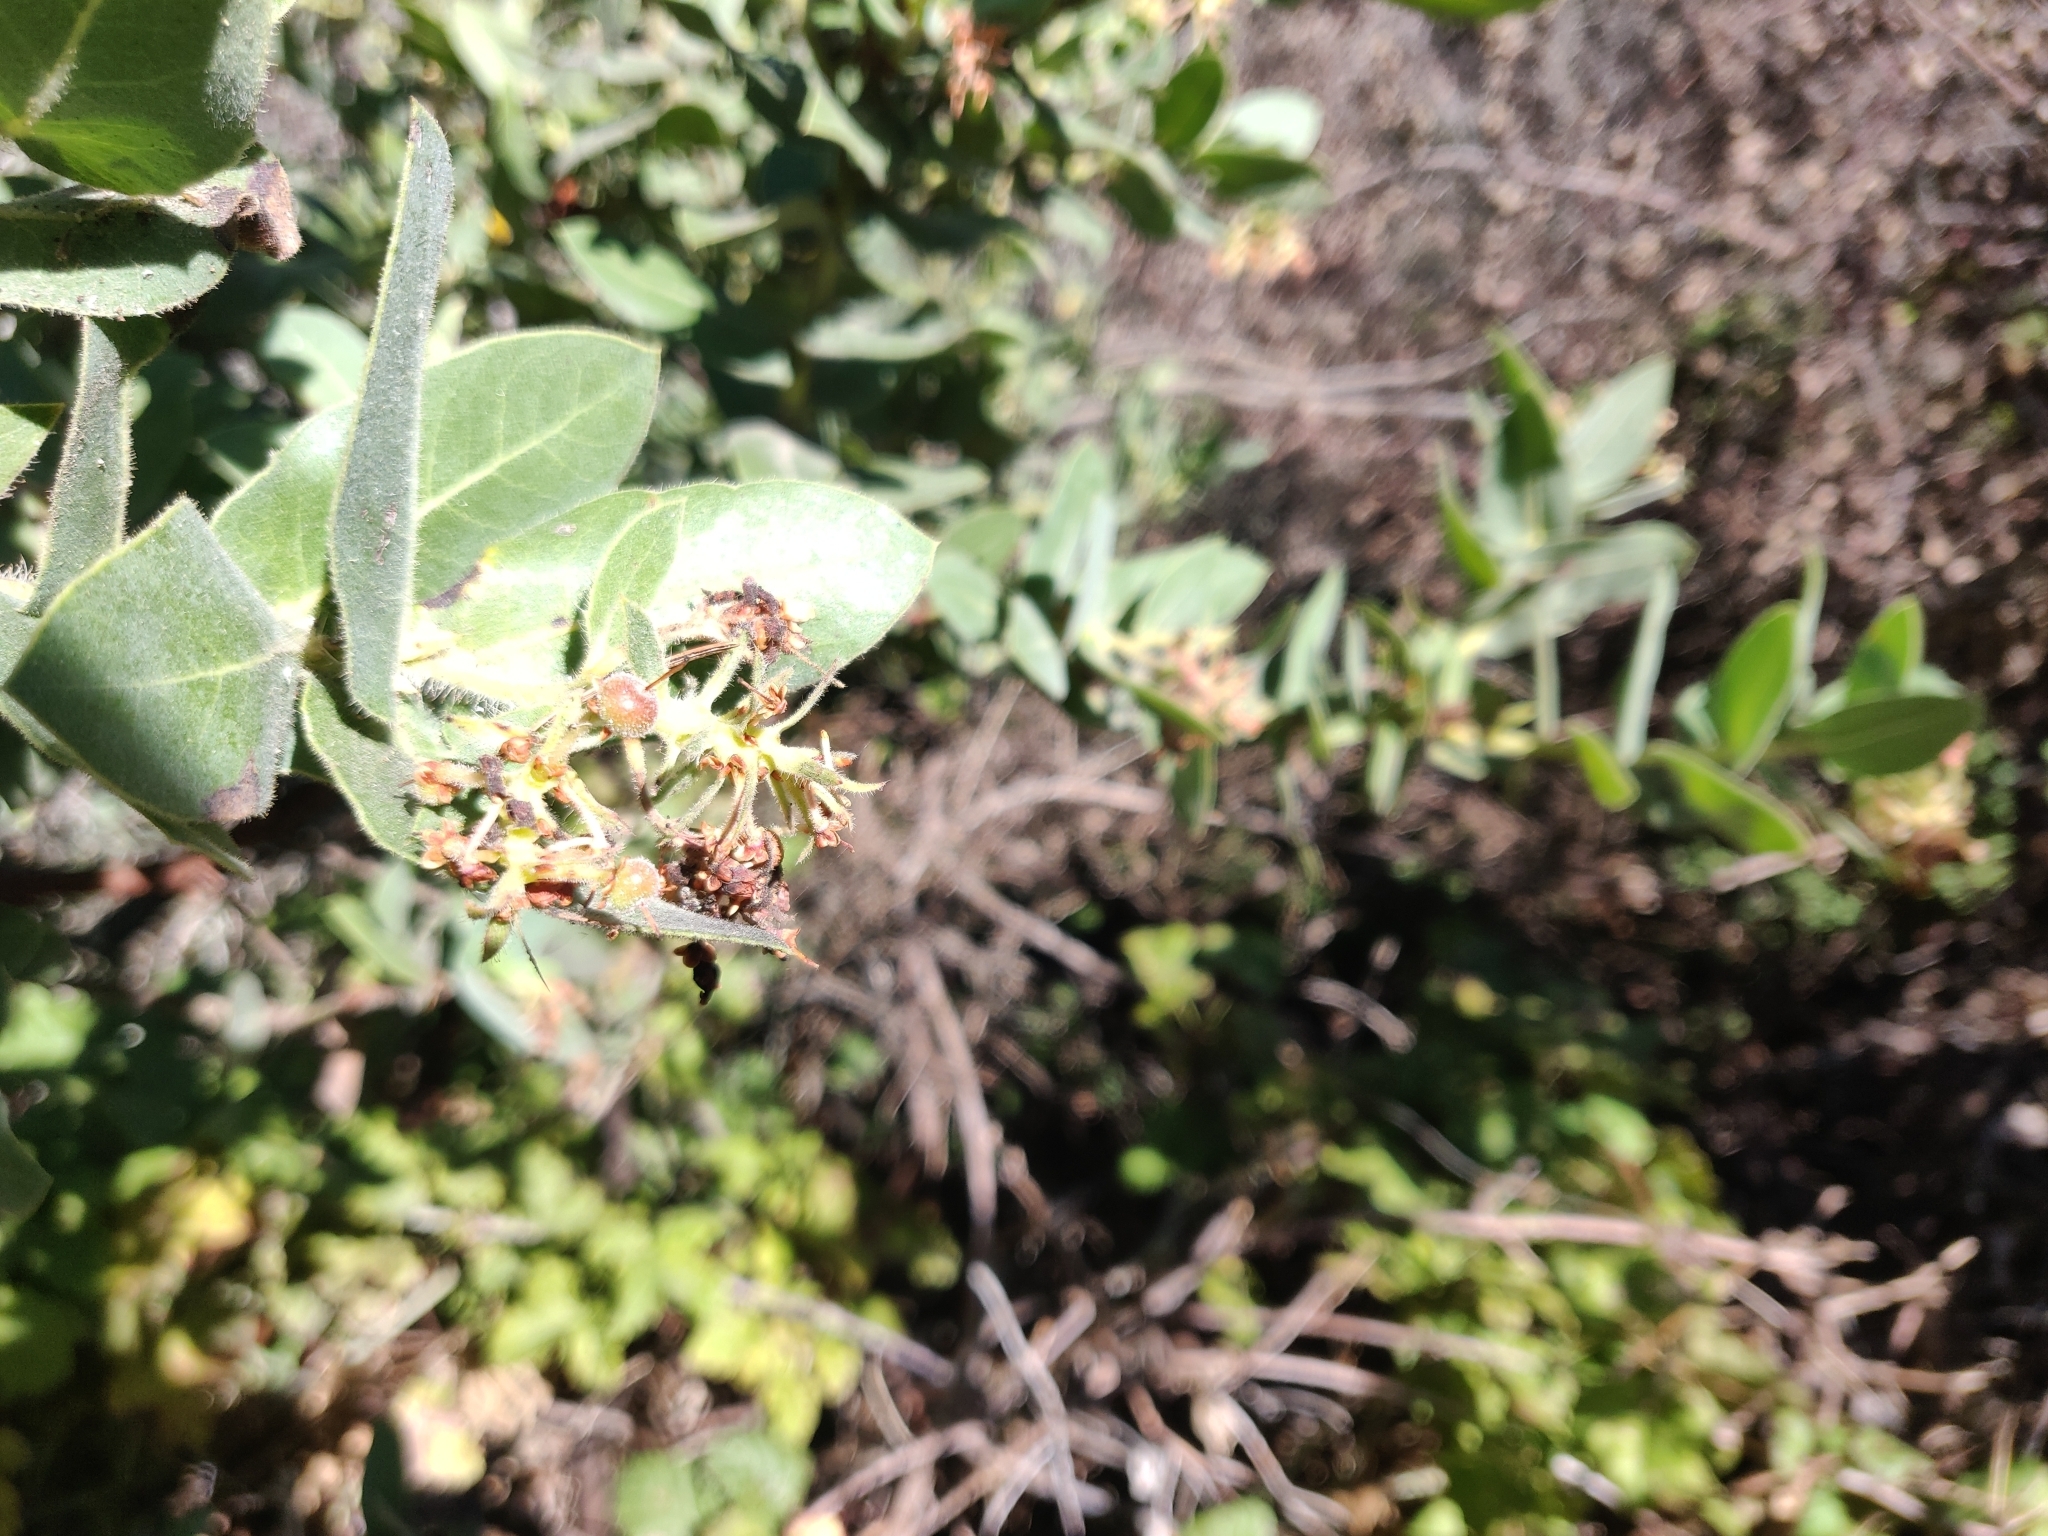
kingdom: Plantae
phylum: Tracheophyta
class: Magnoliopsida
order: Ericales
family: Ericaceae
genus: Arctostaphylos
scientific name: Arctostaphylos regismontana
